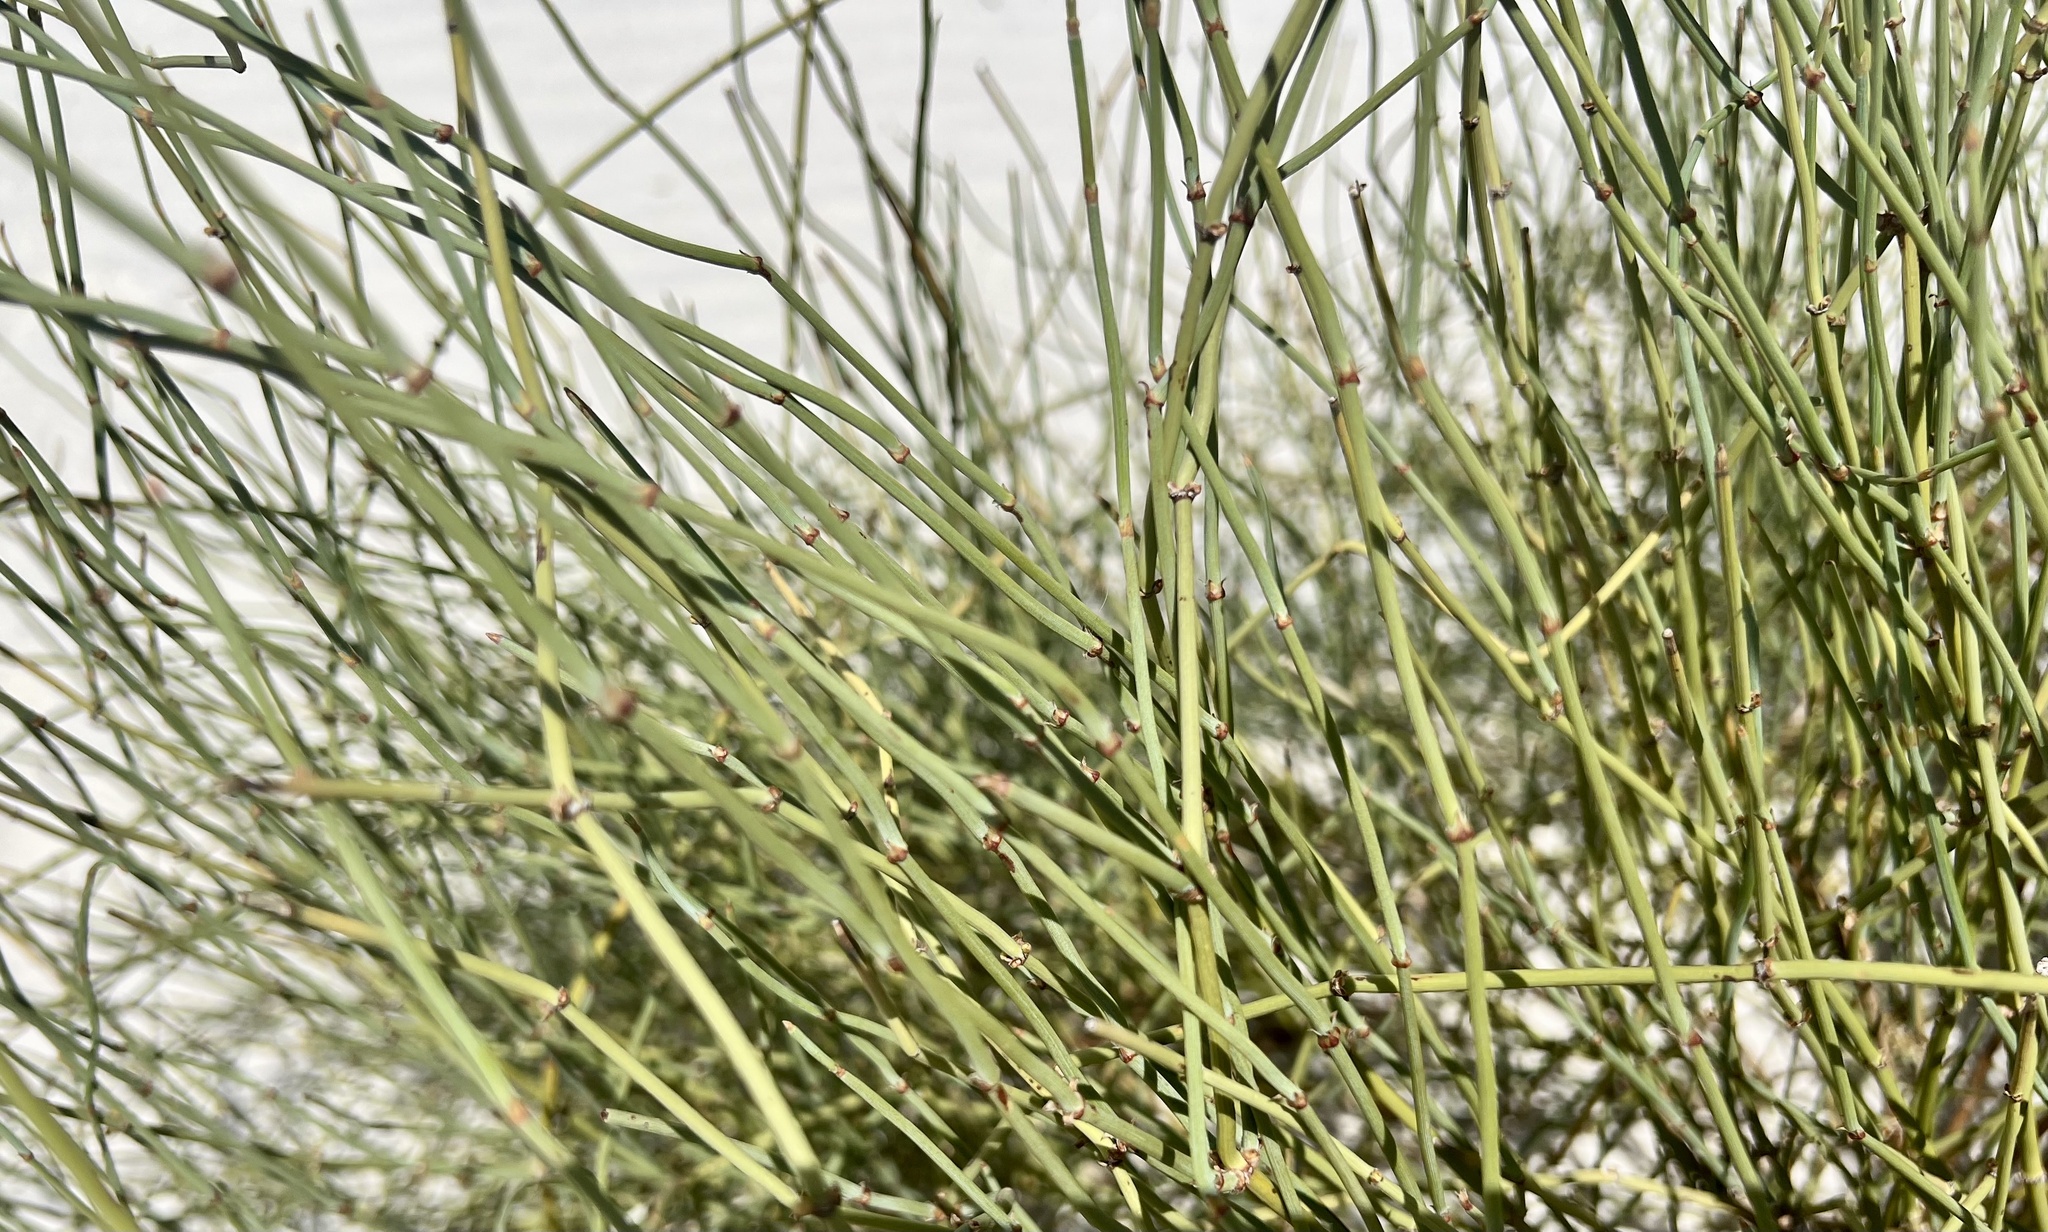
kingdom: Plantae
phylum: Tracheophyta
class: Gnetopsida
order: Ephedrales
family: Ephedraceae
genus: Ephedra
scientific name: Ephedra torreyana
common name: Torrey ephedra
